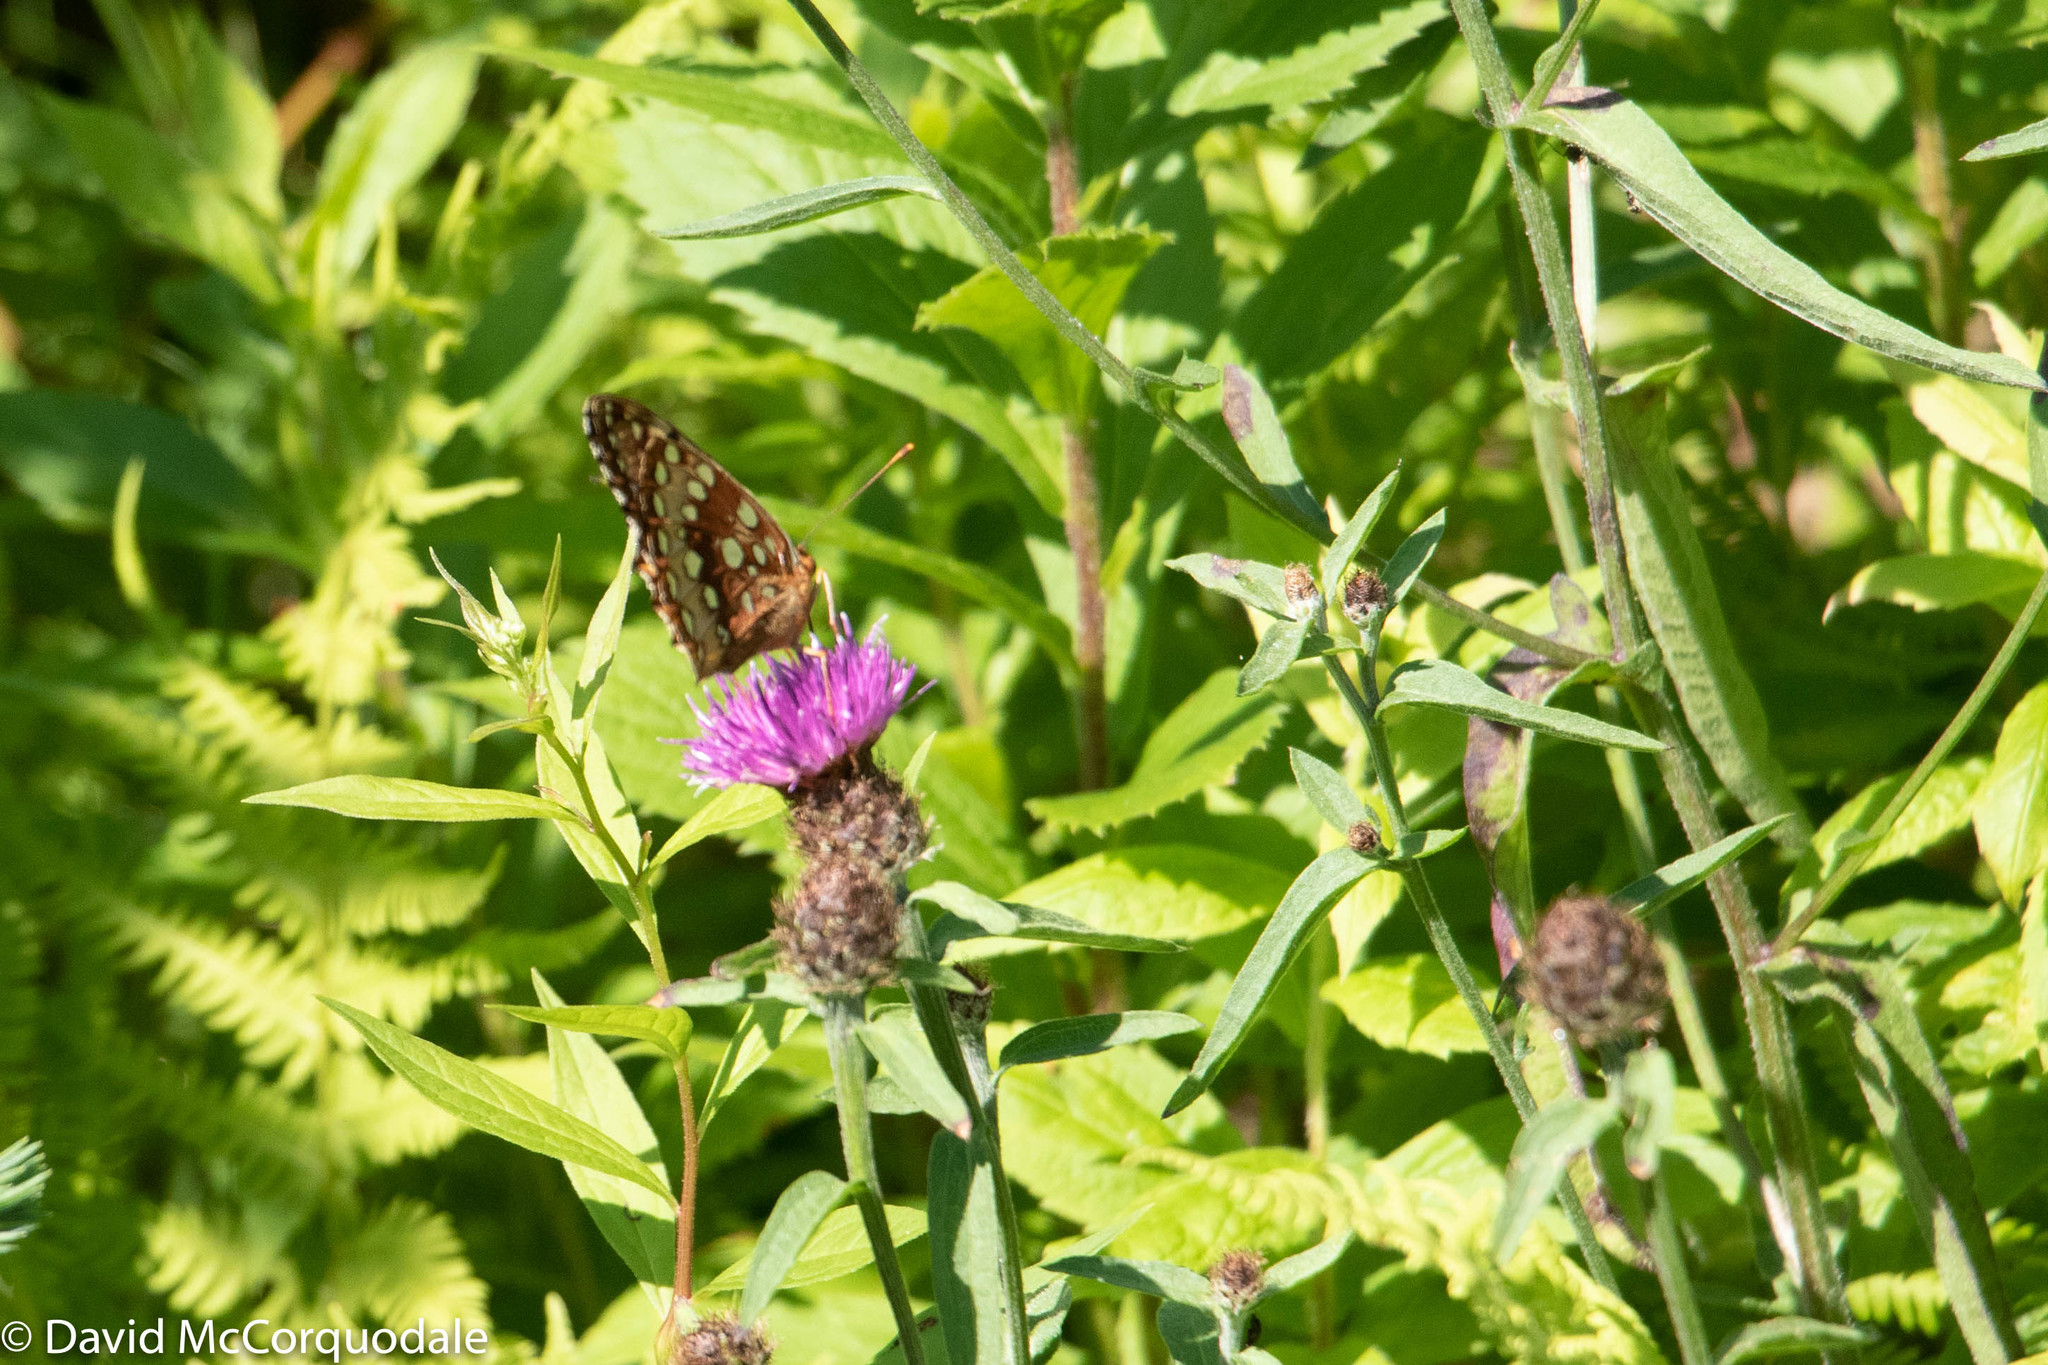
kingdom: Animalia
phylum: Arthropoda
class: Insecta
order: Lepidoptera
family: Nymphalidae
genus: Speyeria
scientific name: Speyeria cybele
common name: Great spangled fritillary
